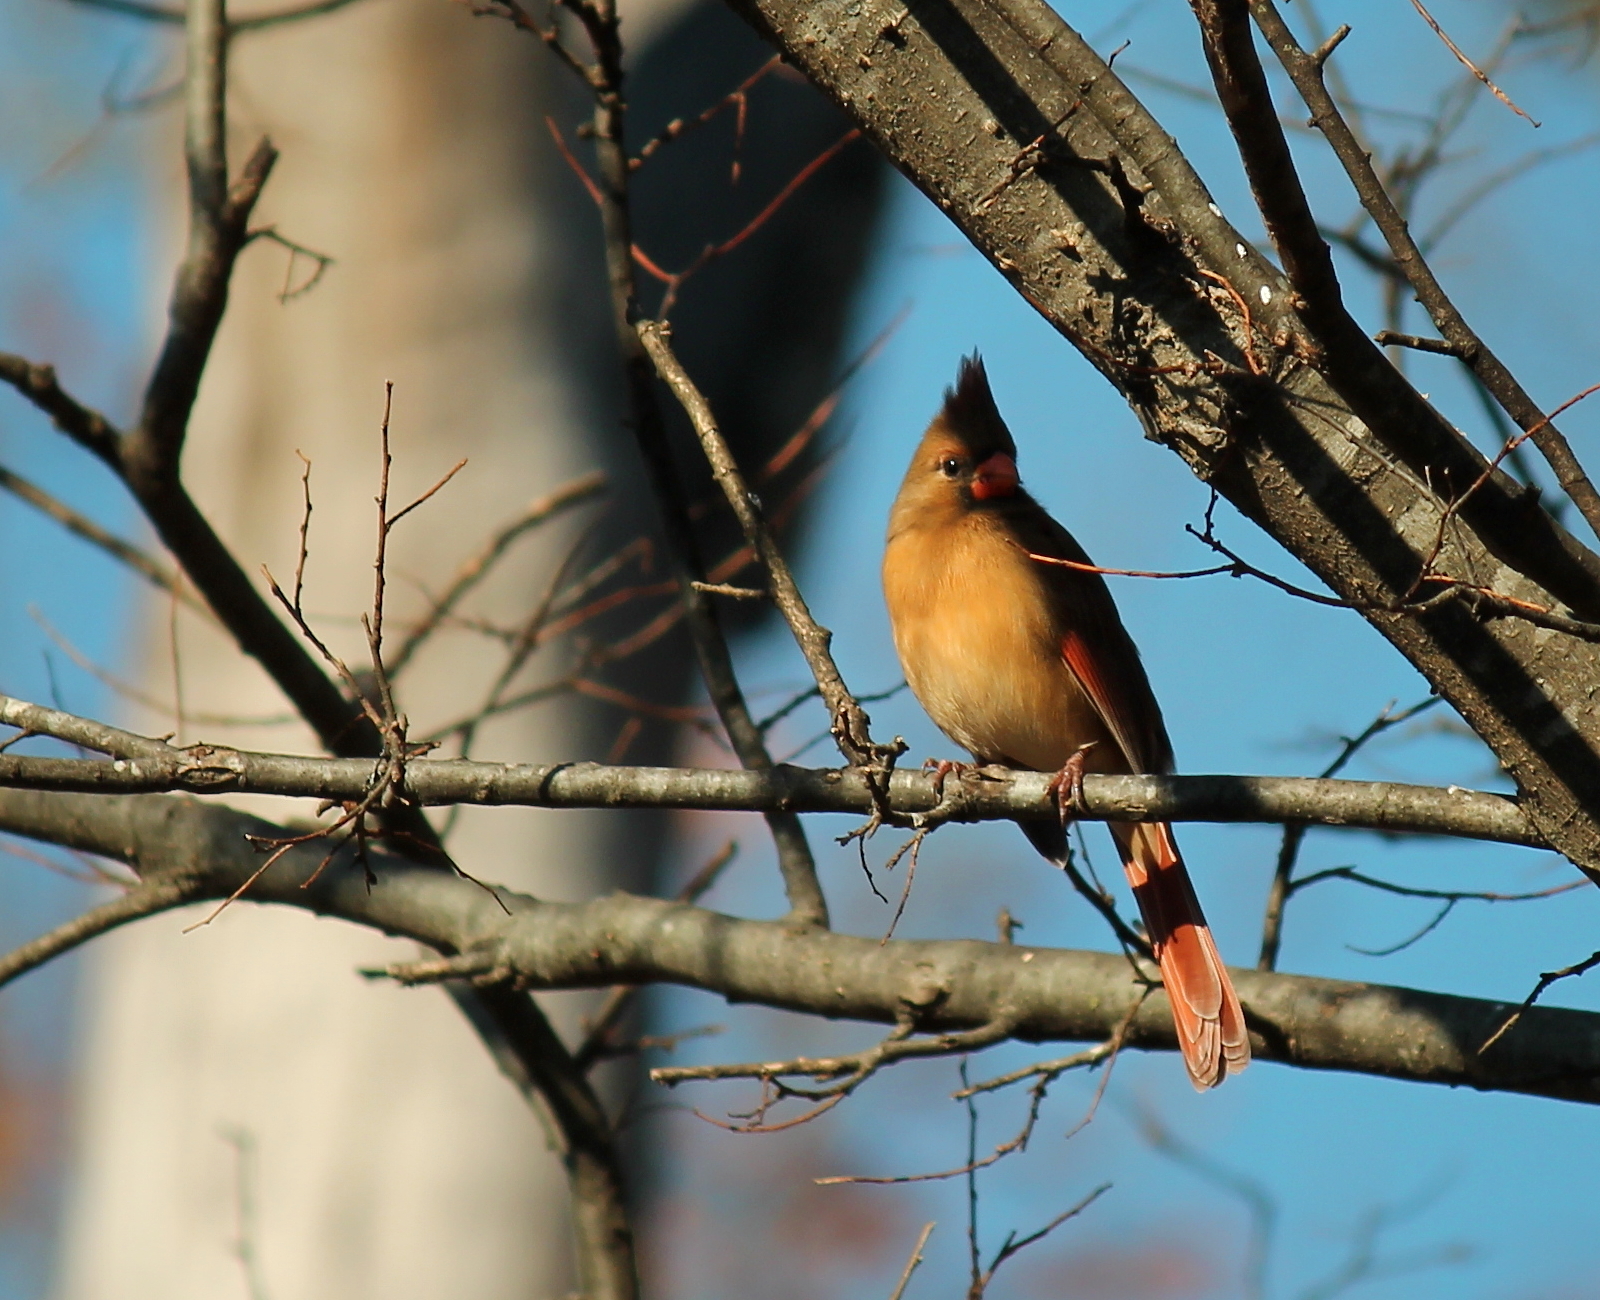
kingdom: Animalia
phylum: Chordata
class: Aves
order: Passeriformes
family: Cardinalidae
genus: Cardinalis
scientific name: Cardinalis cardinalis
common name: Northern cardinal
